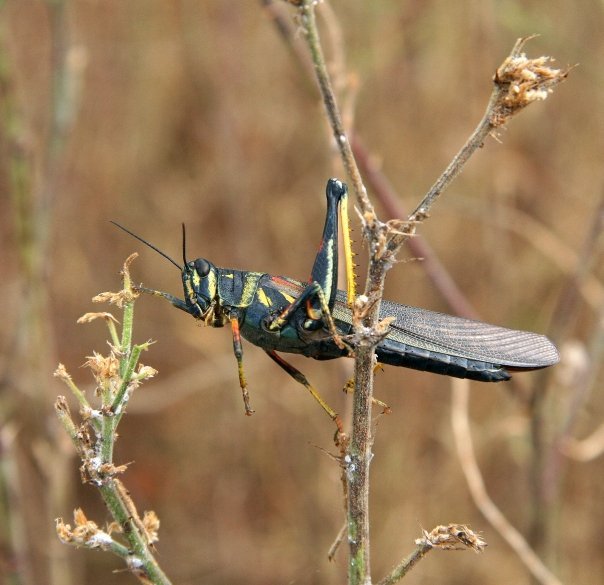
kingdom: Animalia
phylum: Arthropoda
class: Insecta
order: Orthoptera
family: Acrididae
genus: Schistocerca
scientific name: Schistocerca melanocera
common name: Large painted locust
